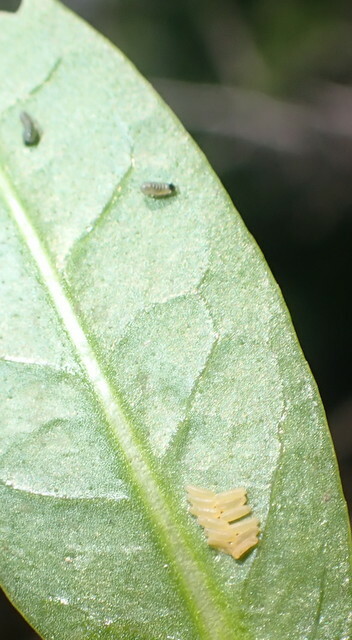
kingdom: Animalia
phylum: Arthropoda
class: Insecta
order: Coleoptera
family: Chrysomelidae
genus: Agasicles
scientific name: Agasicles hygrophila
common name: Alligatorweed flea beetle
